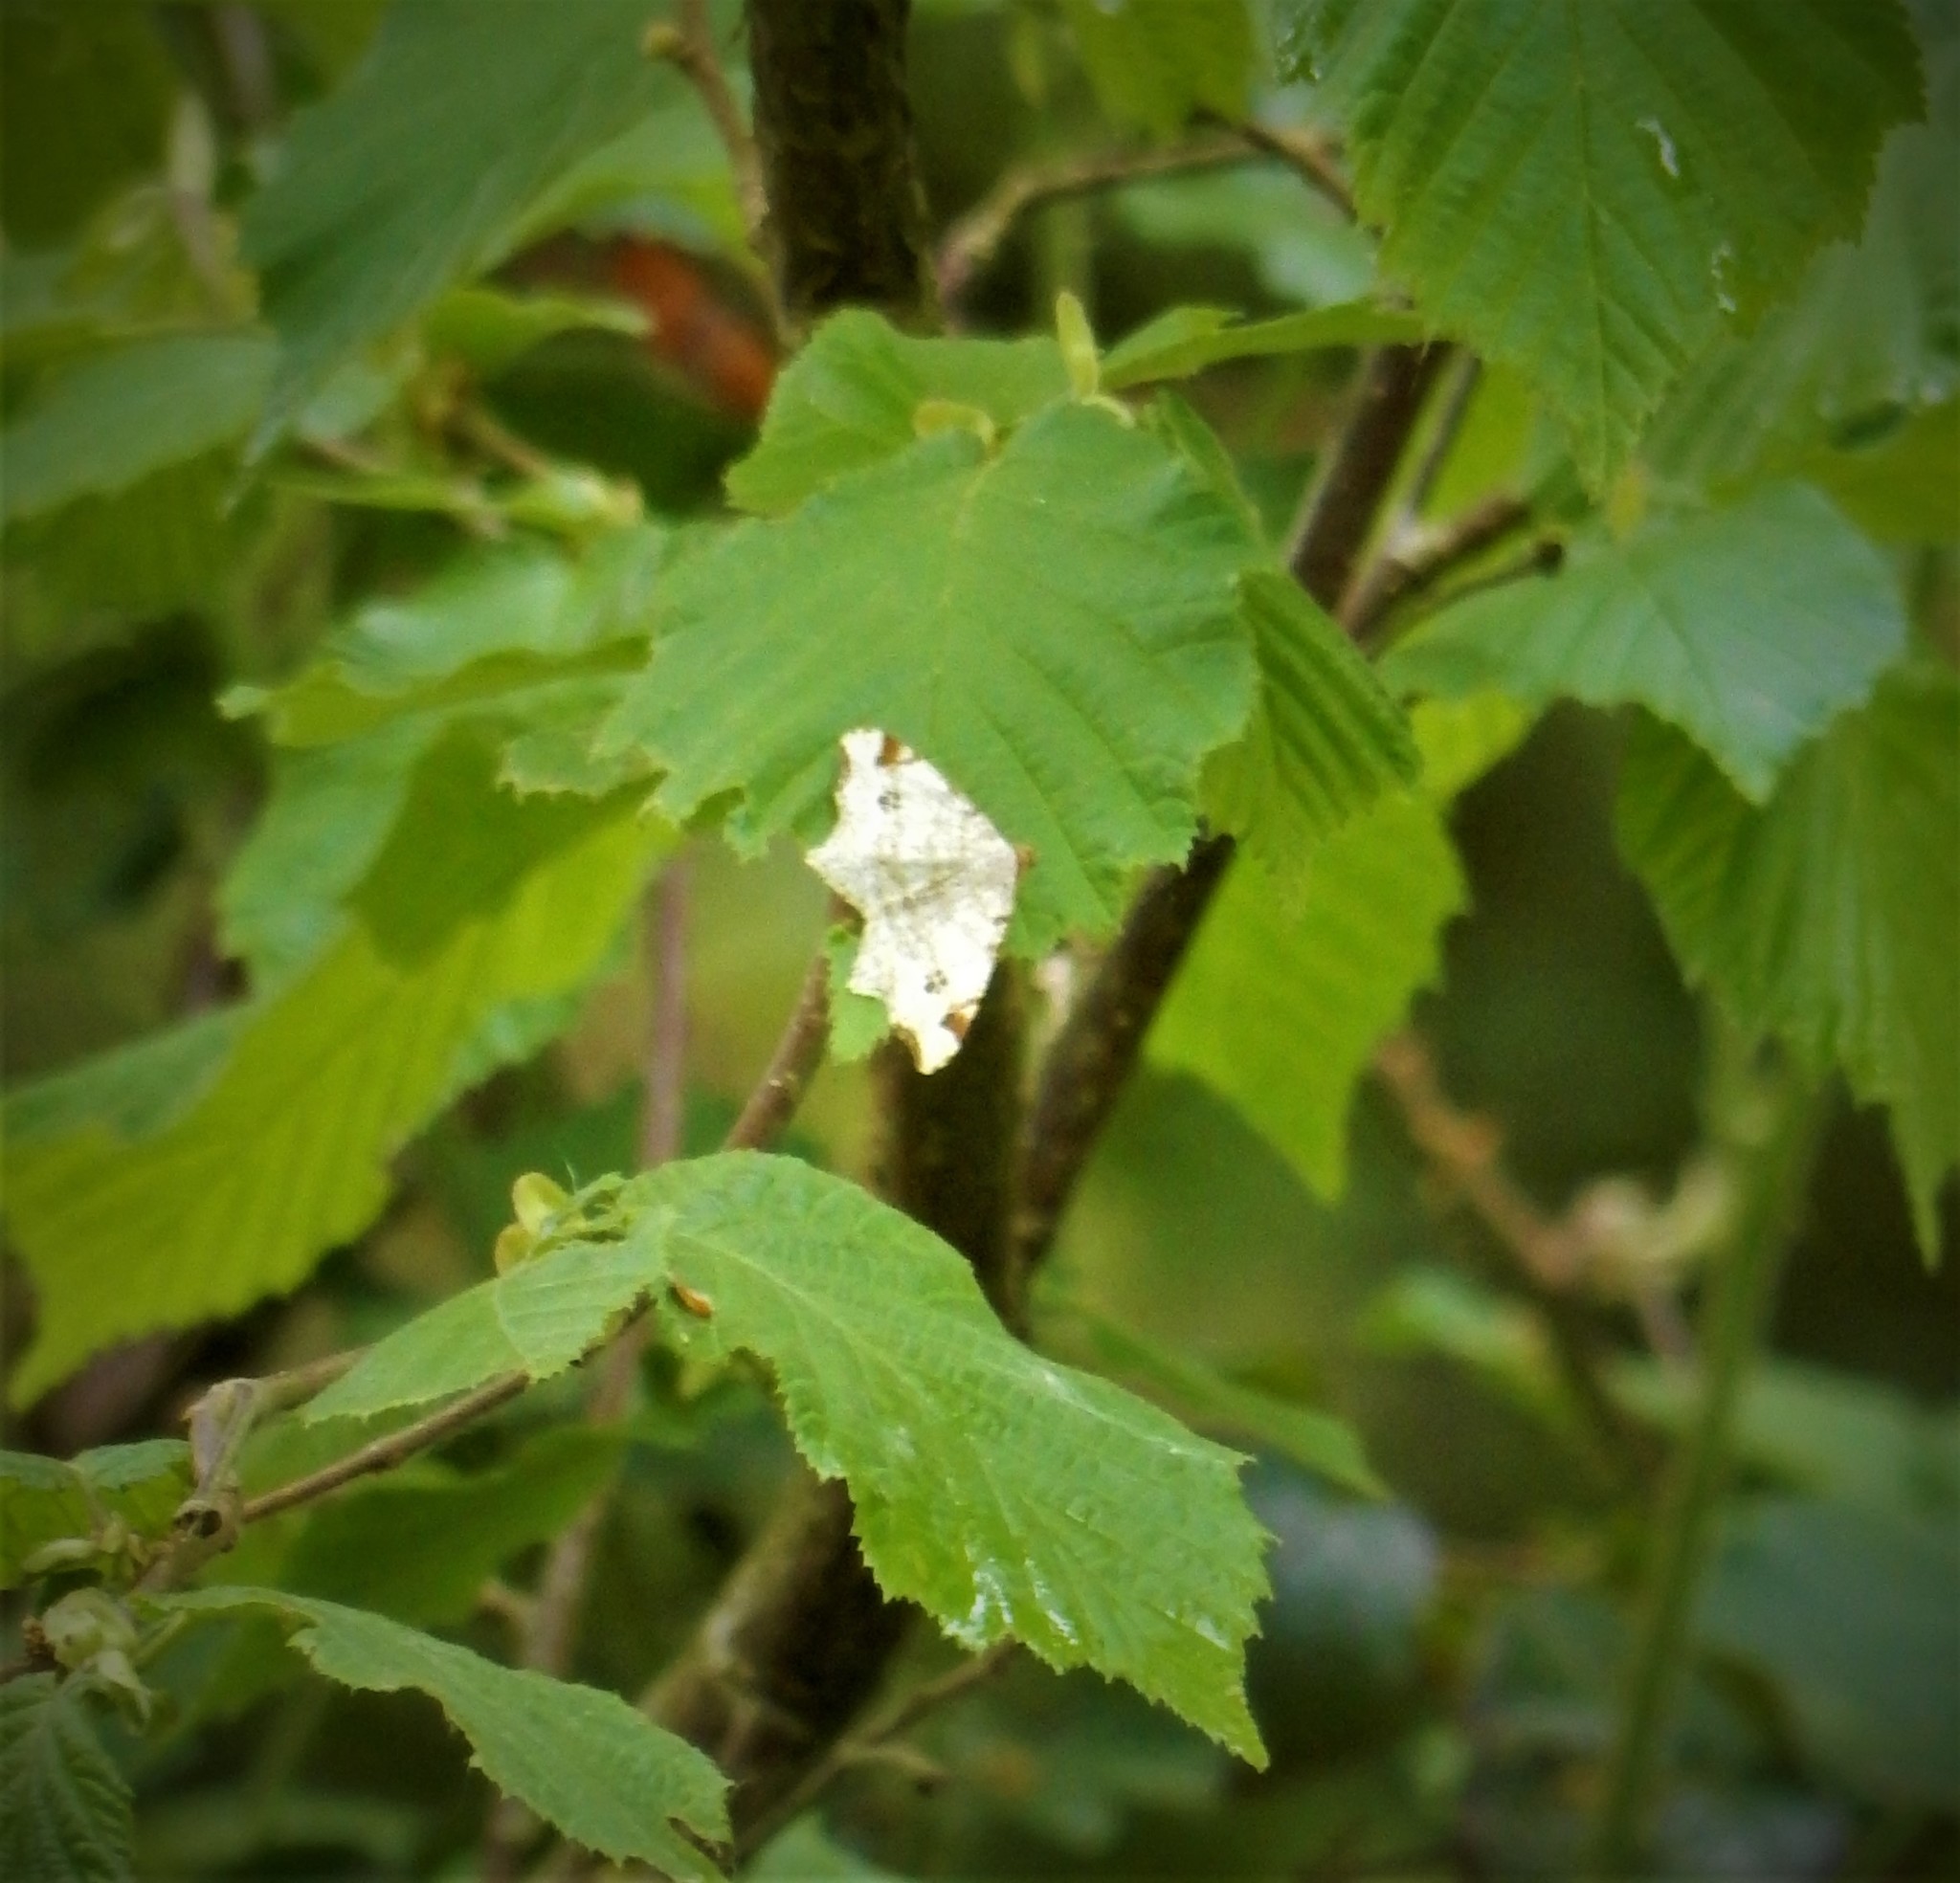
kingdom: Animalia
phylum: Arthropoda
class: Insecta
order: Lepidoptera
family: Geometridae
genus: Macaria
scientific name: Macaria notata
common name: Peacock moth
